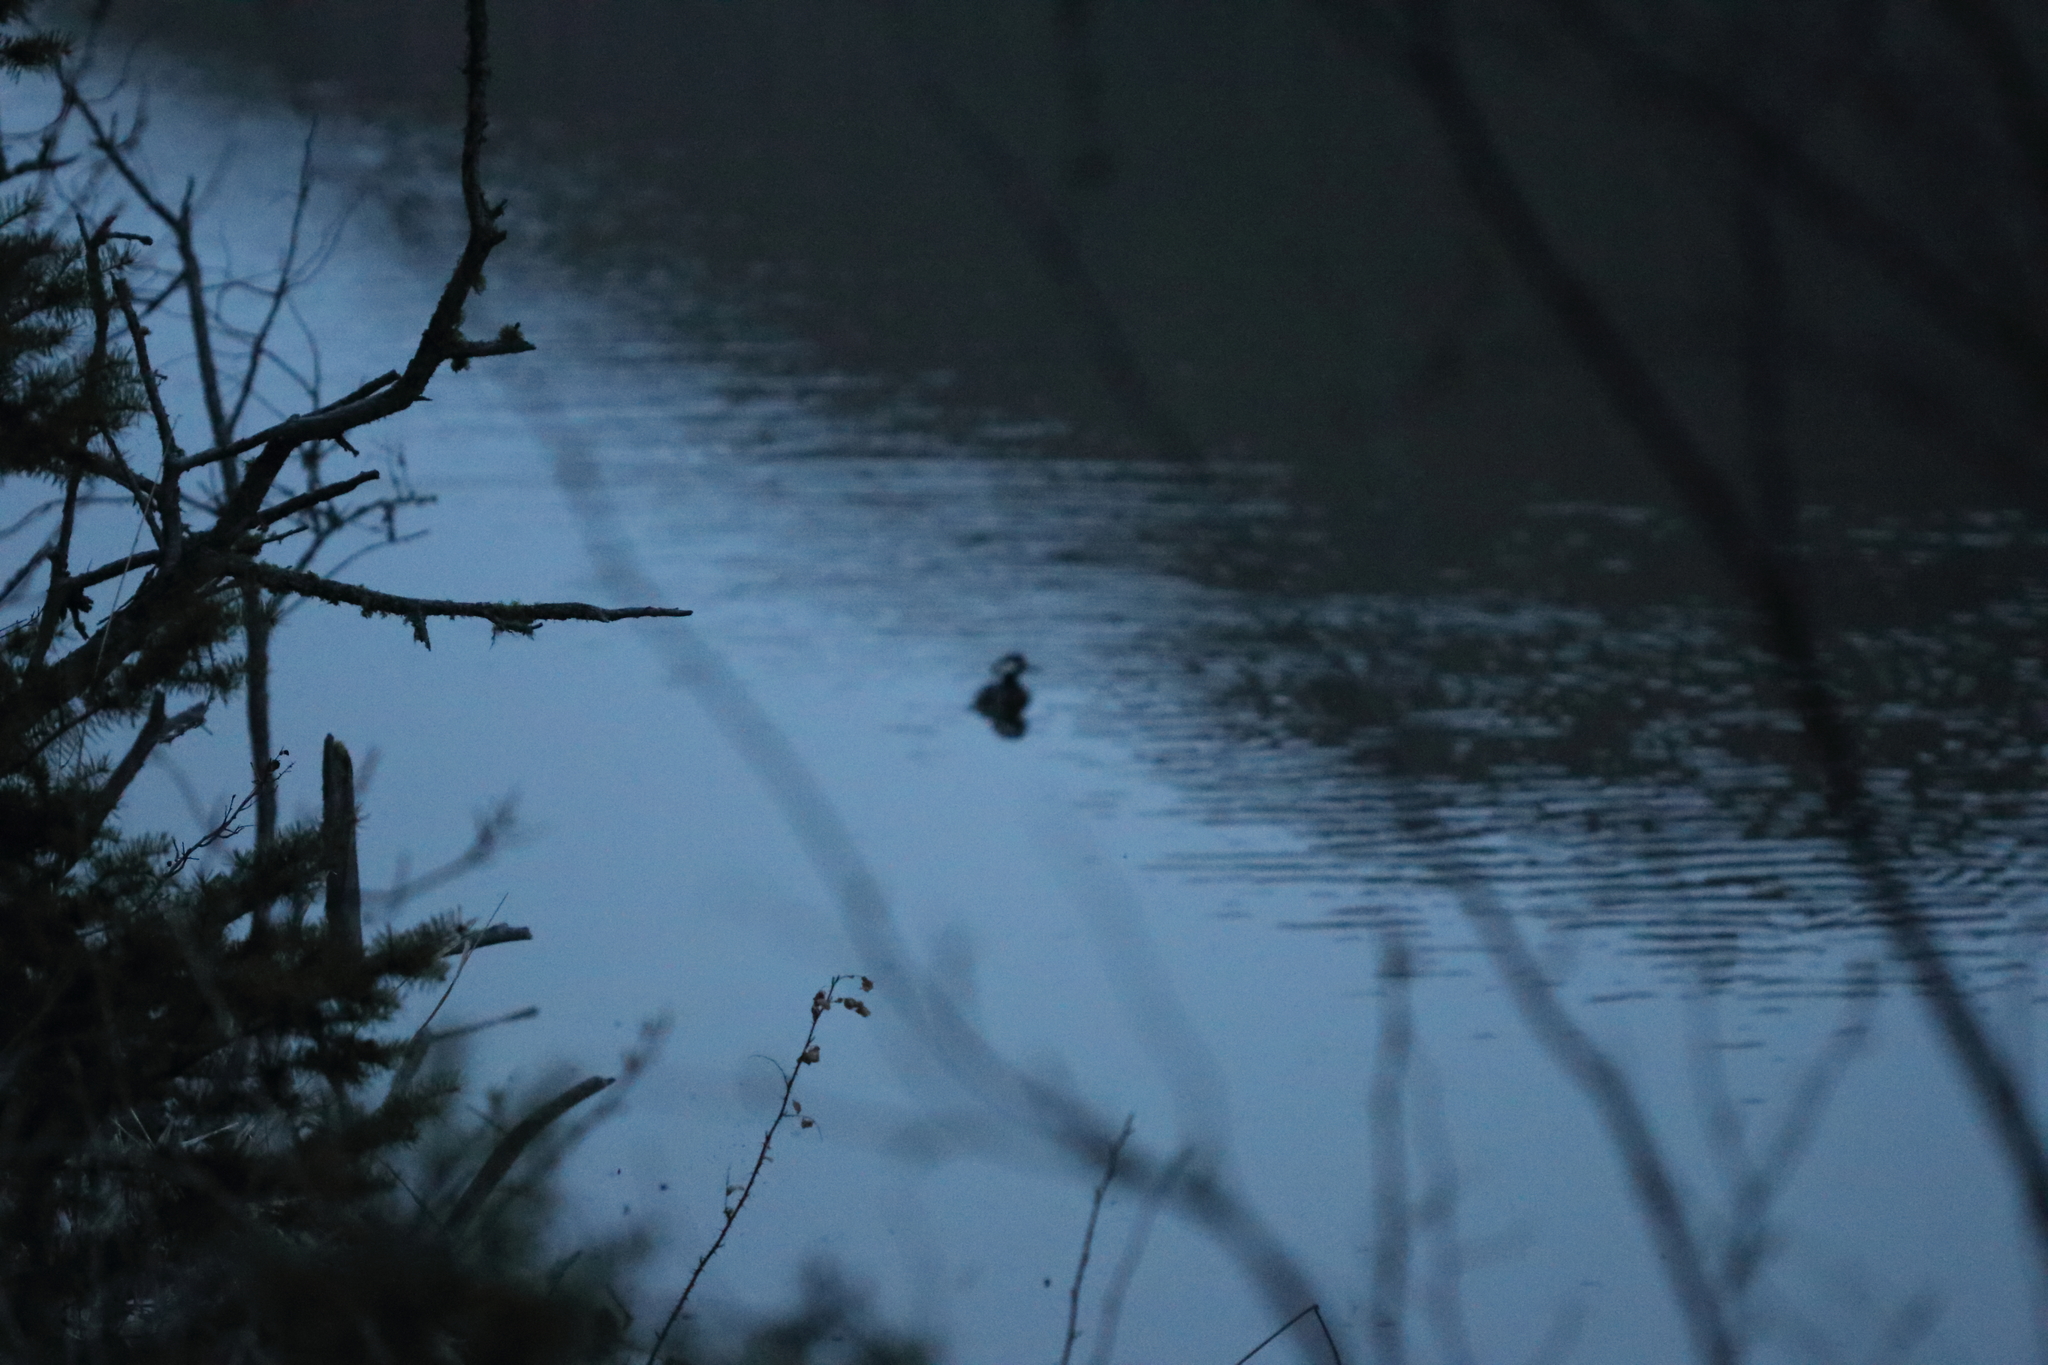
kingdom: Animalia
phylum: Chordata
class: Aves
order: Anseriformes
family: Anatidae
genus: Lophodytes
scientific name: Lophodytes cucullatus
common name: Hooded merganser
